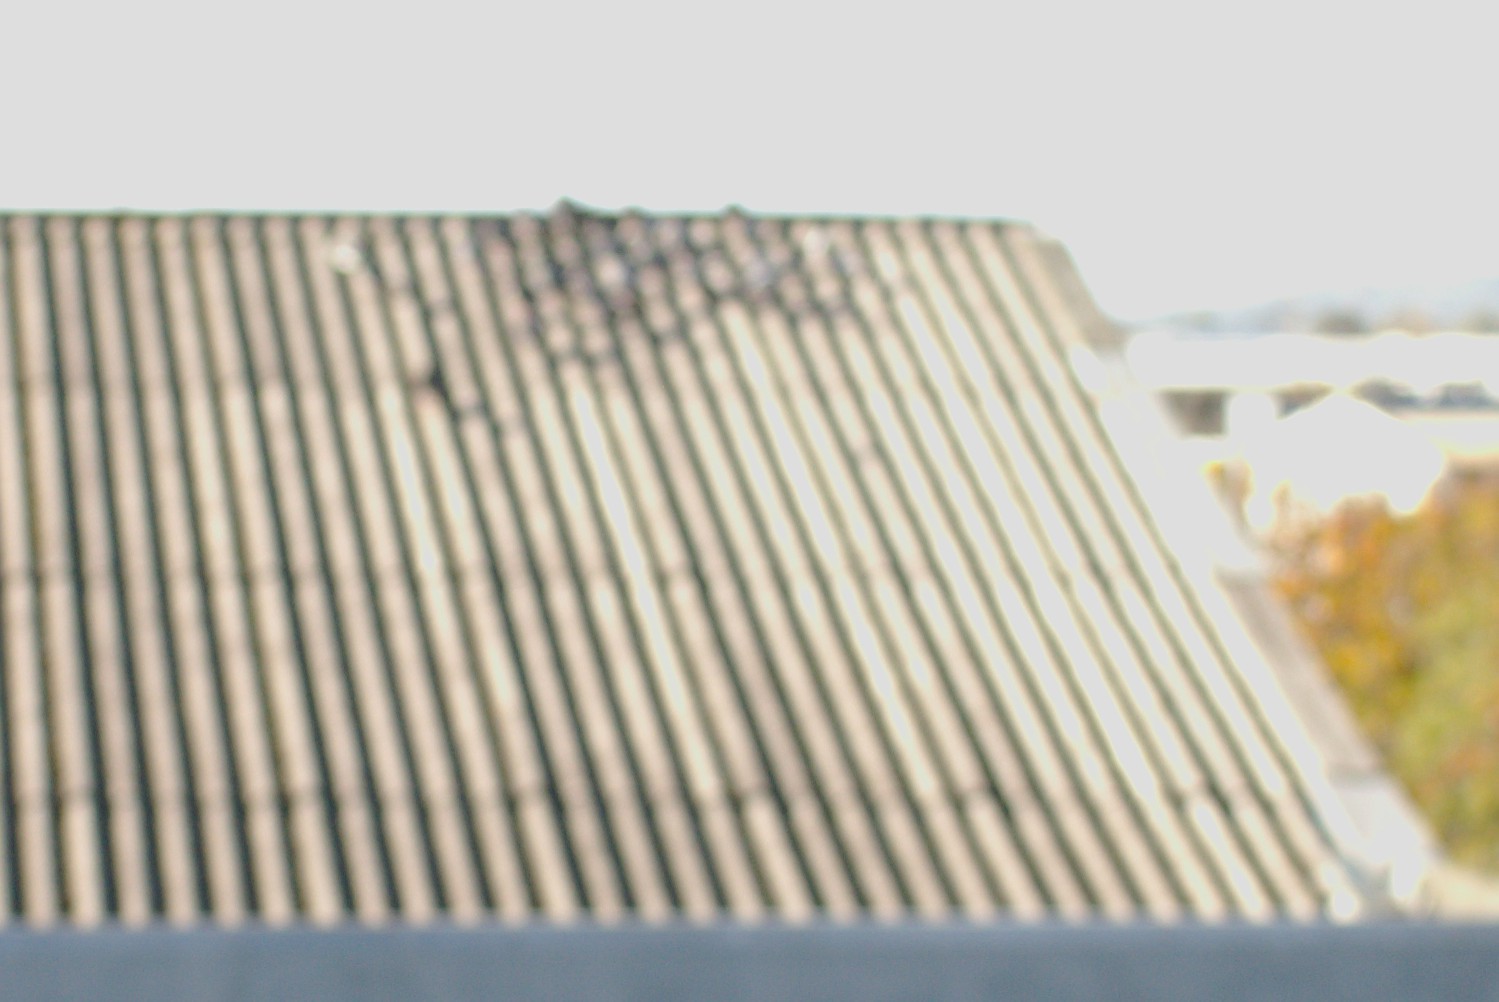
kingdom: Animalia
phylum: Chordata
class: Aves
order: Columbiformes
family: Columbidae
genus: Columba
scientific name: Columba livia
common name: Rock pigeon
